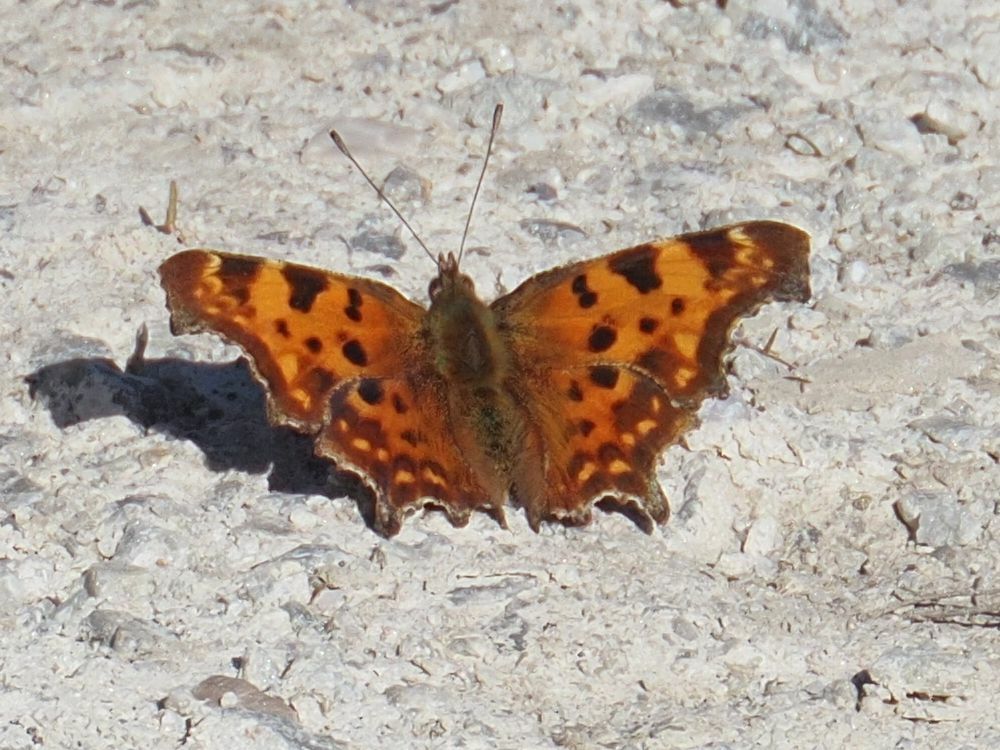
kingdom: Animalia
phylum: Arthropoda
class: Insecta
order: Lepidoptera
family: Nymphalidae
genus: Polygonia
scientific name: Polygonia c-album
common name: Comma
